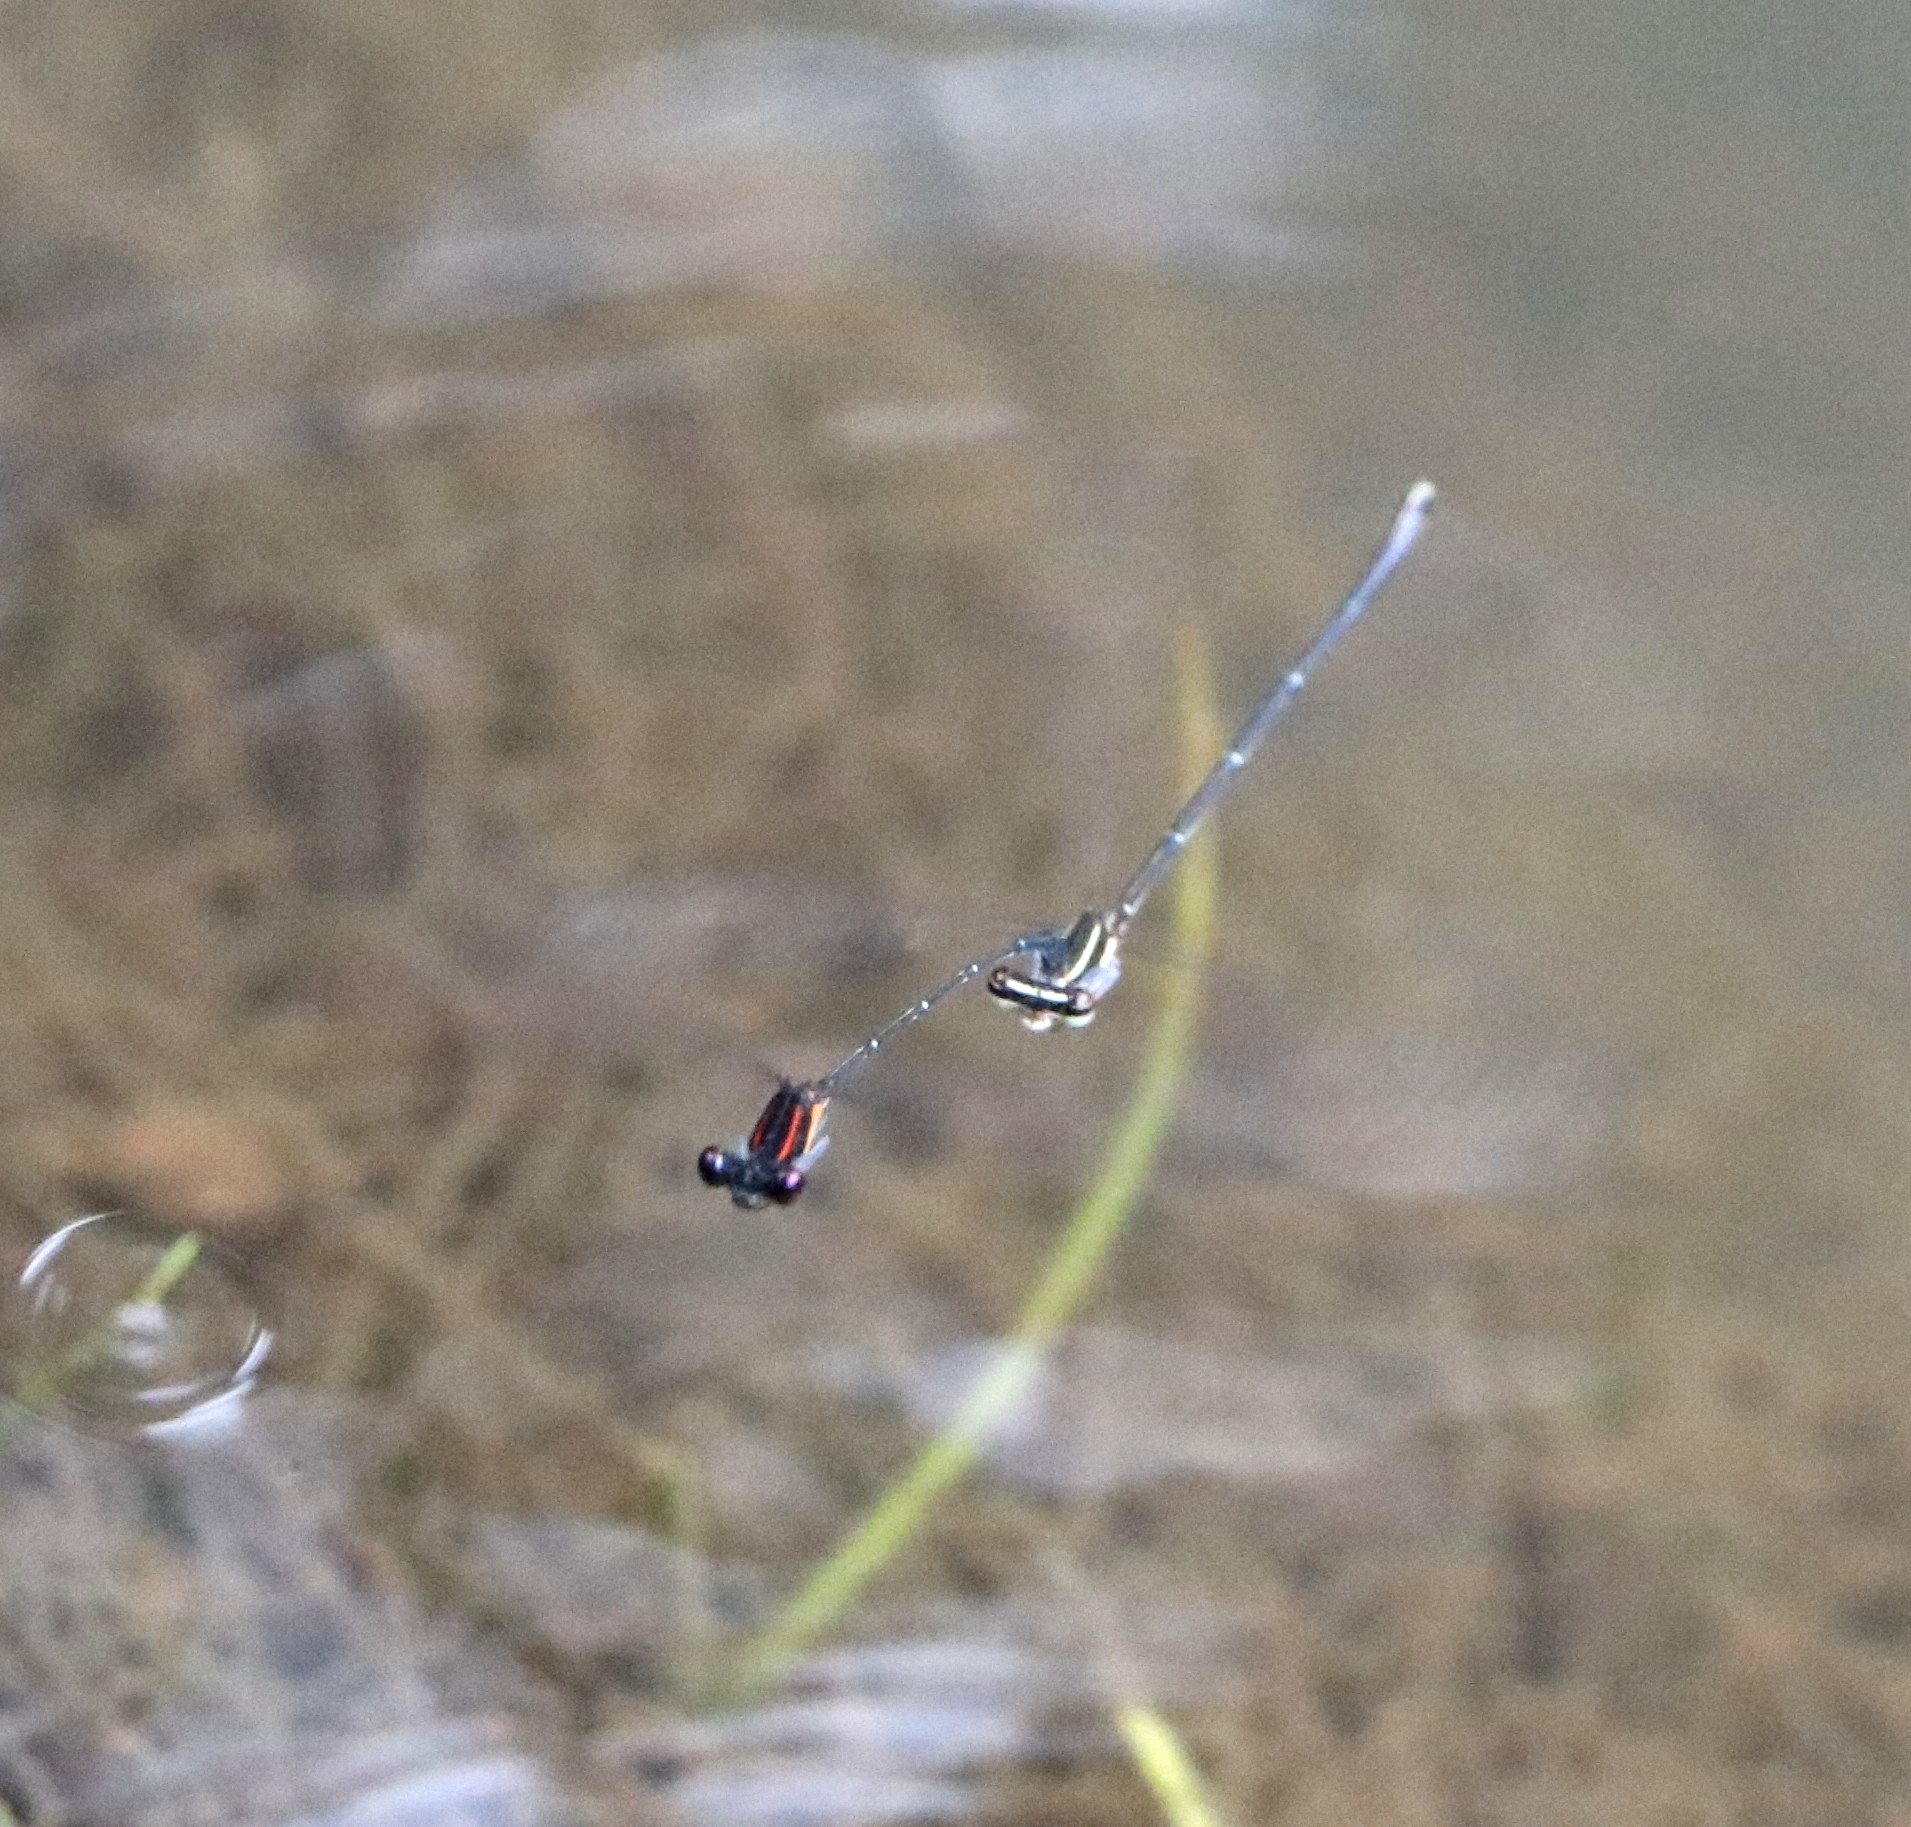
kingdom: Animalia
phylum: Arthropoda
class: Insecta
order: Odonata
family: Platycnemididae
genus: Prodasineura
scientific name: Prodasineura verticalis
